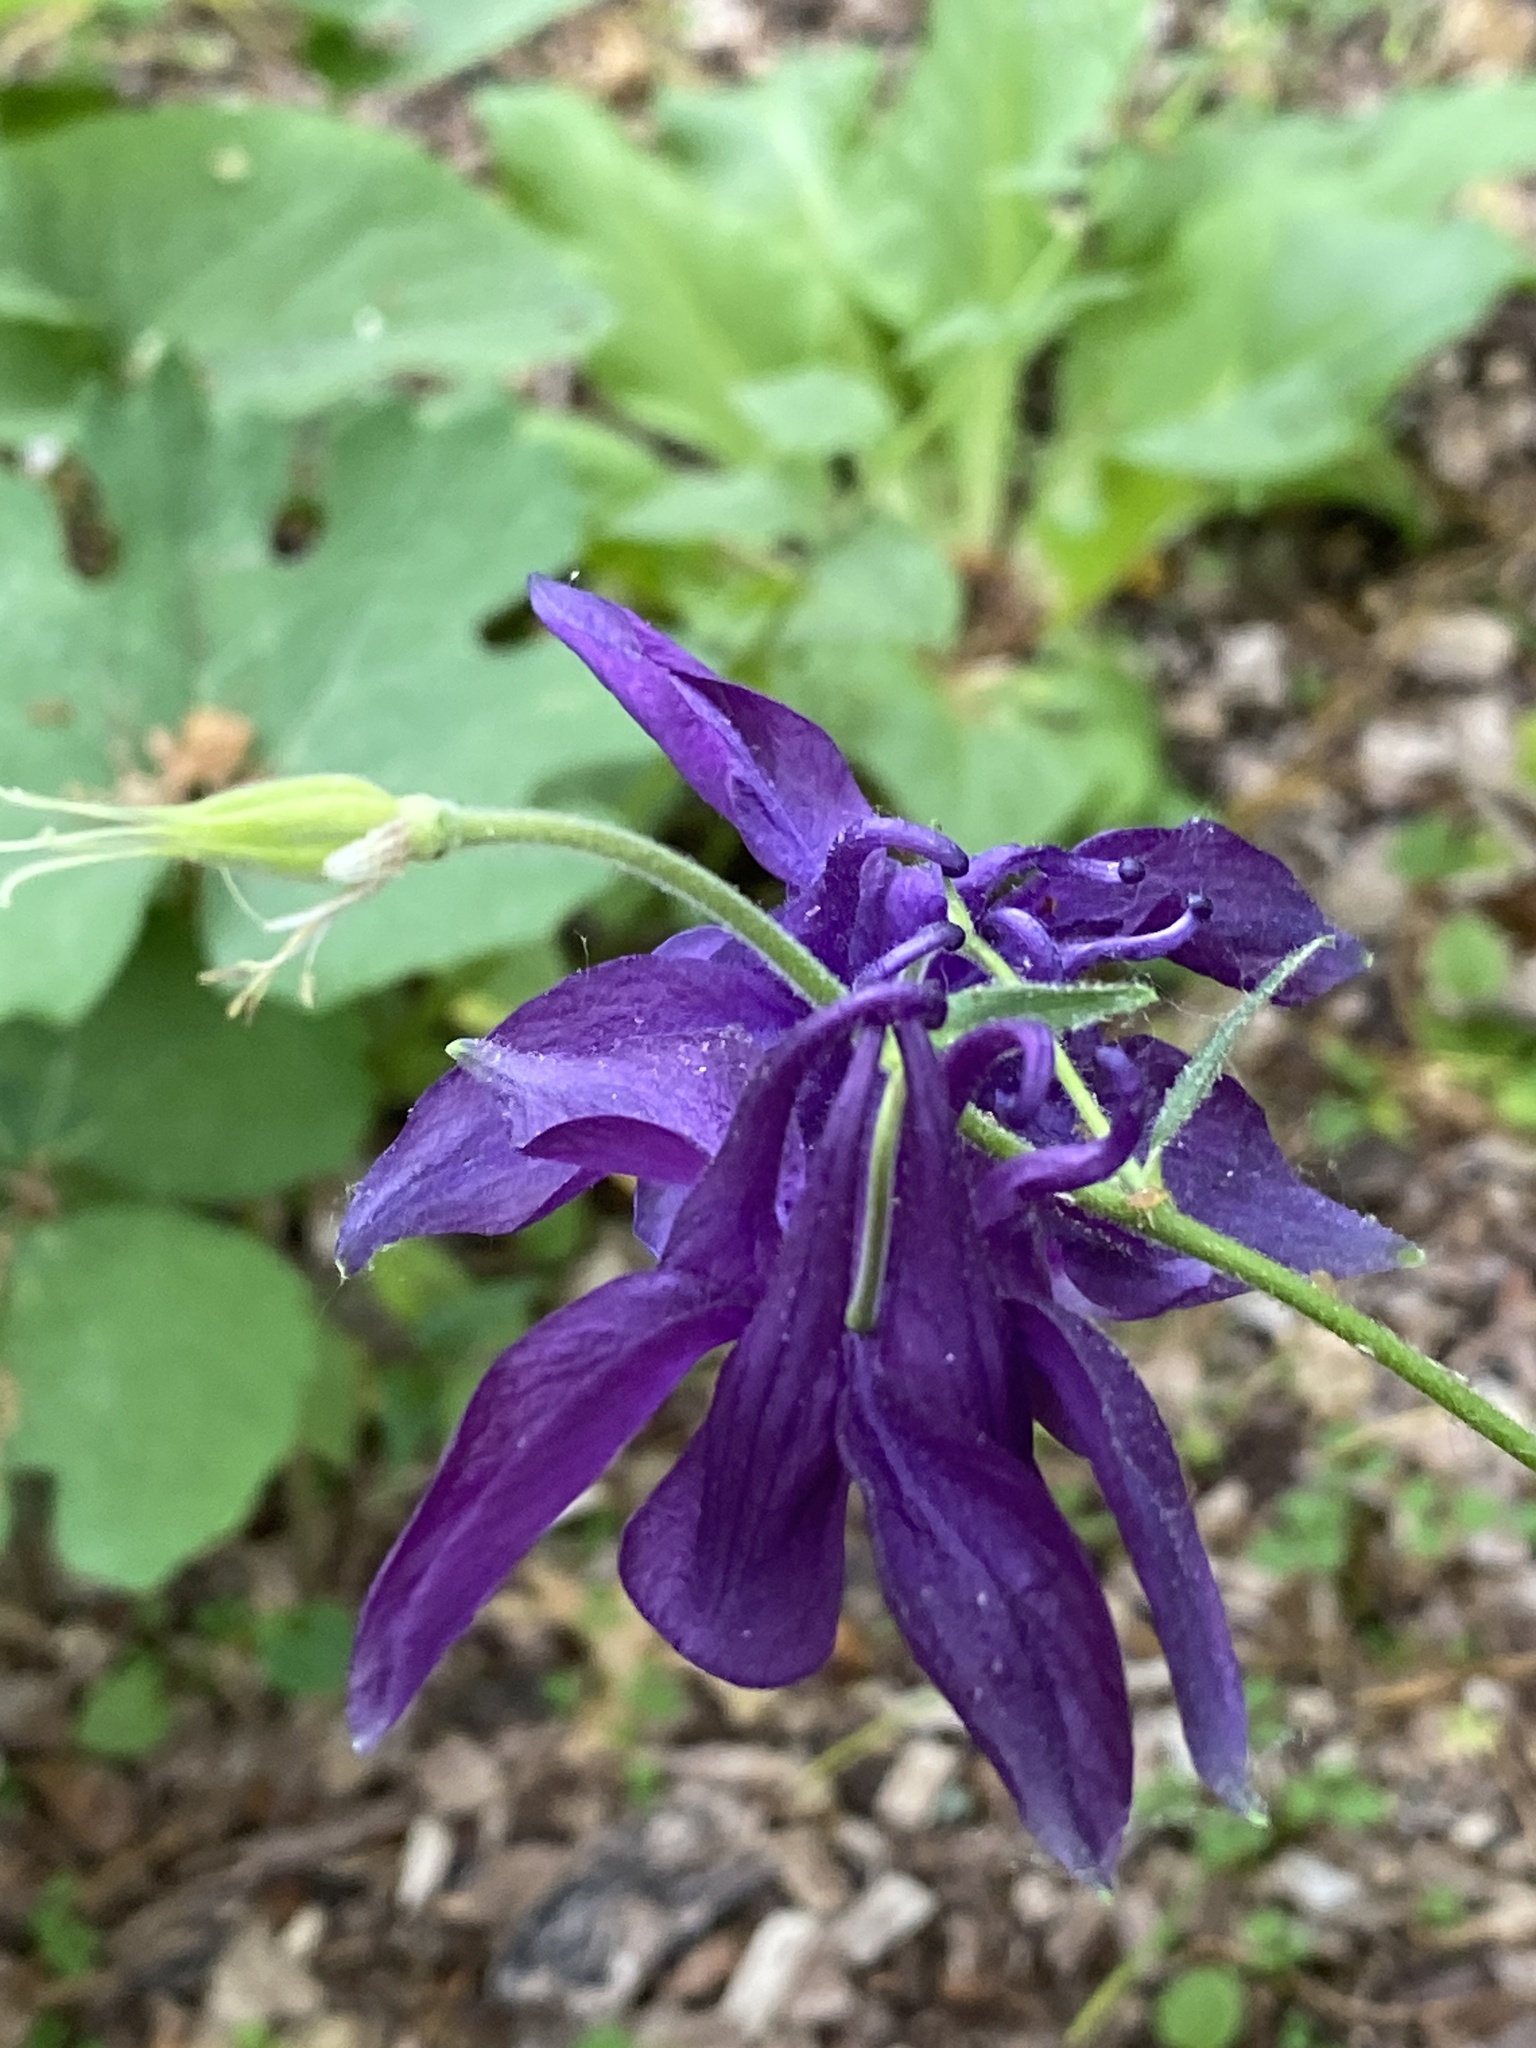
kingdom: Plantae
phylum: Tracheophyta
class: Magnoliopsida
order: Ranunculales
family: Ranunculaceae
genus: Aquilegia
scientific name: Aquilegia vulgaris
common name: Columbine
